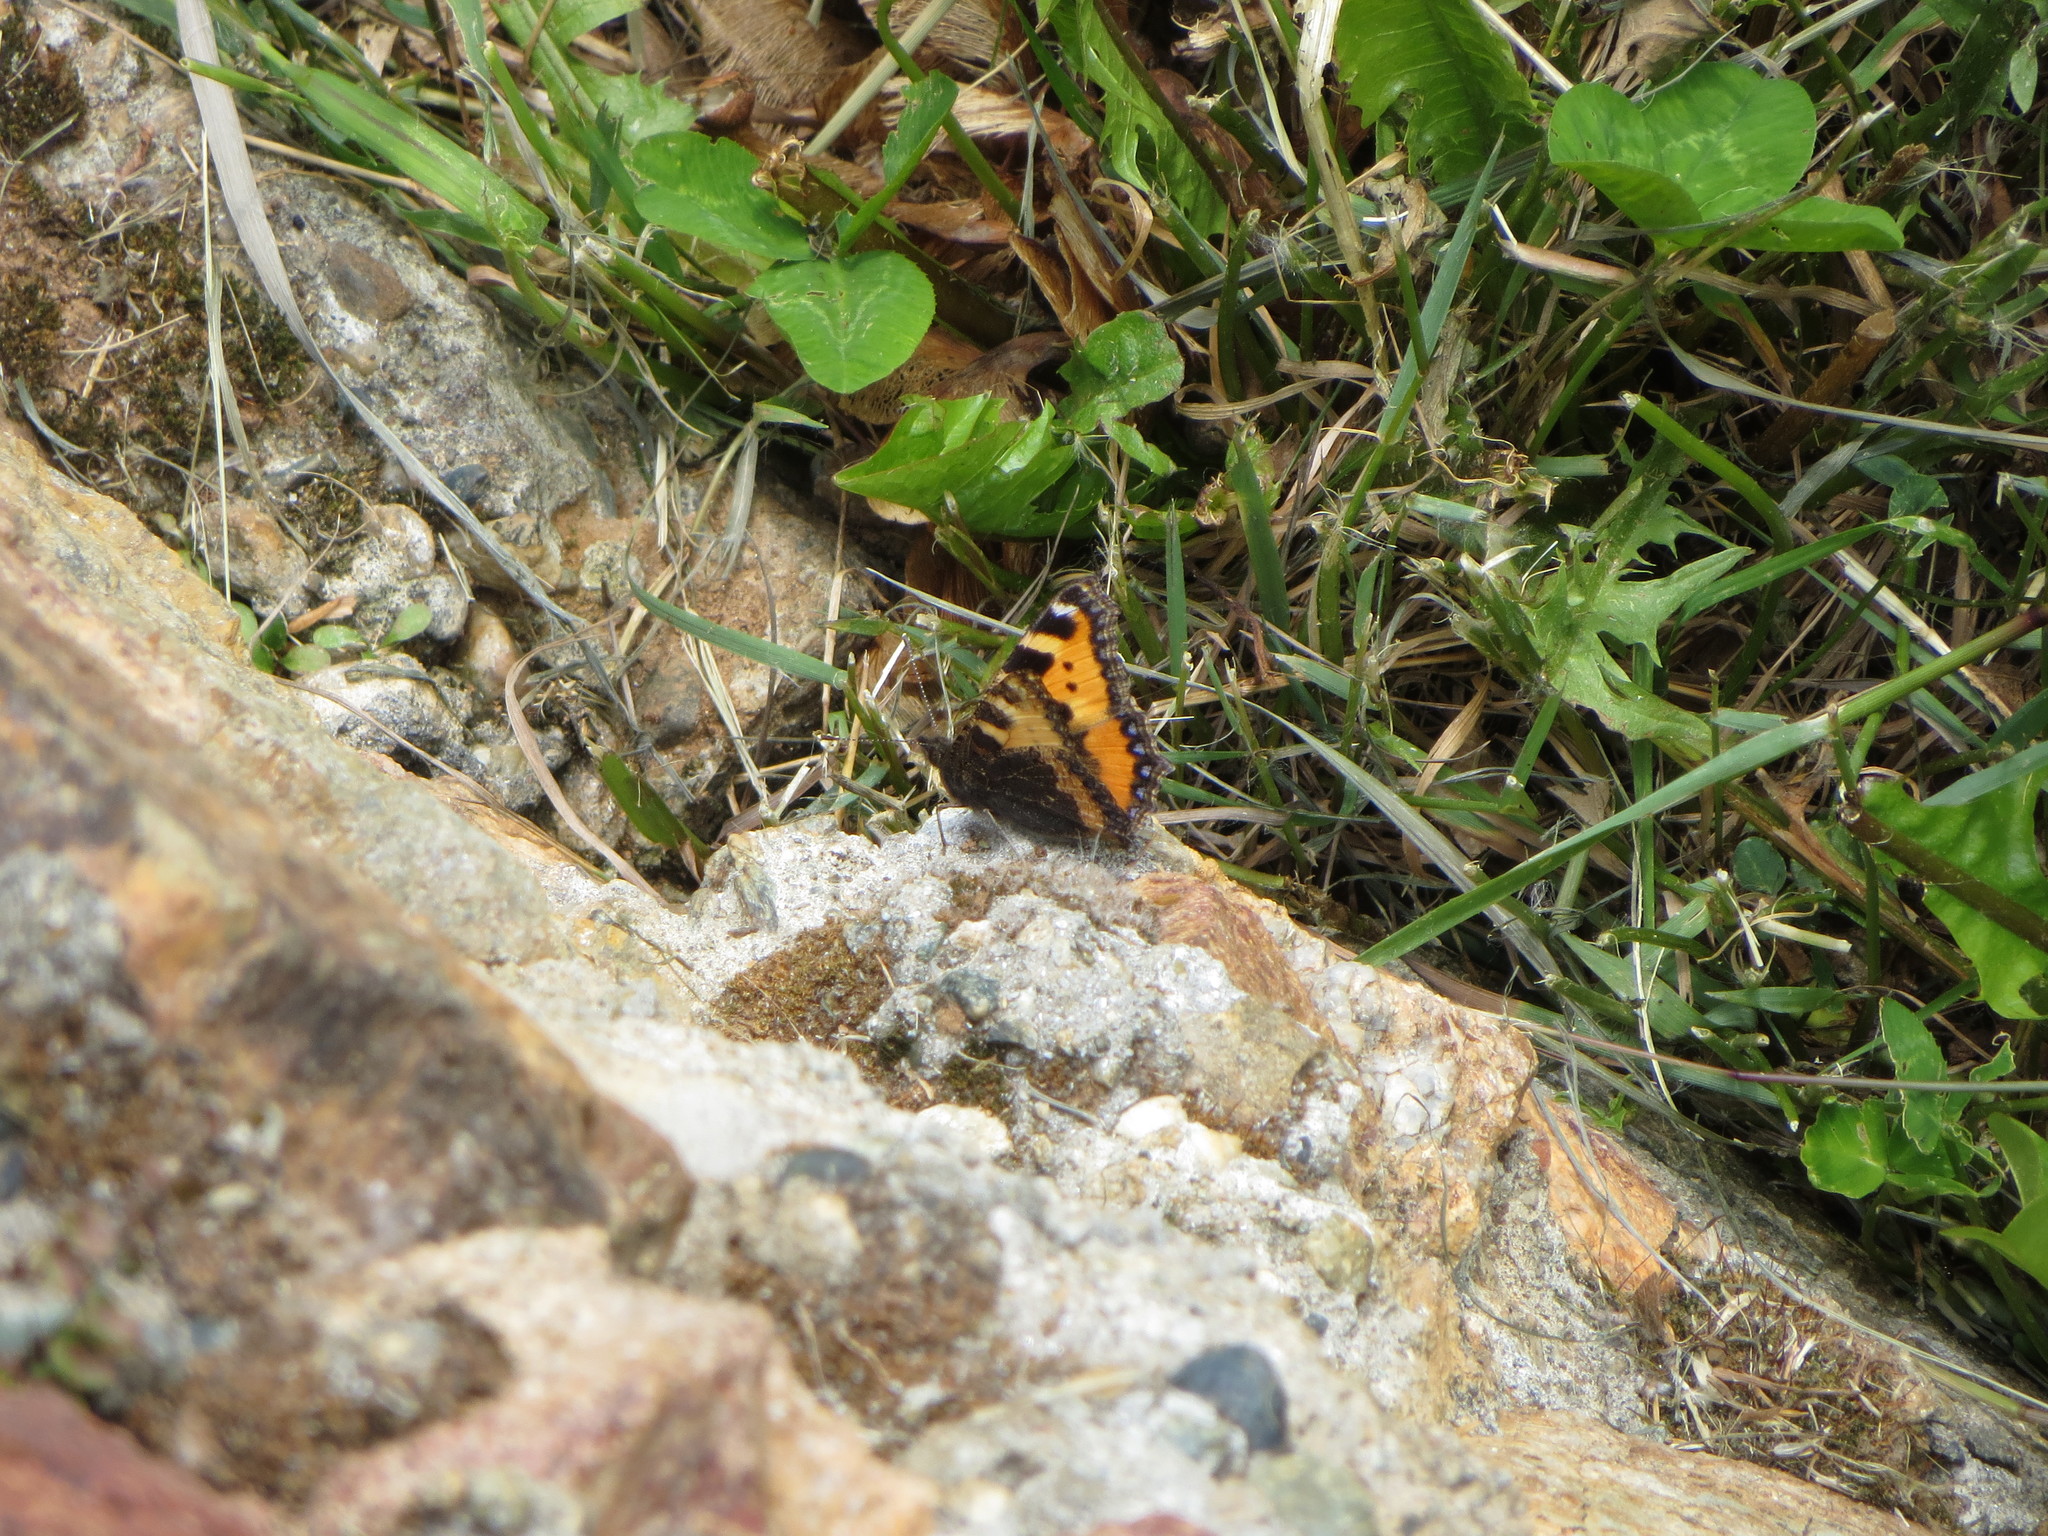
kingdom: Animalia
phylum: Arthropoda
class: Insecta
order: Lepidoptera
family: Nymphalidae
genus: Aglais
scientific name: Aglais urticae
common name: Small tortoiseshell
